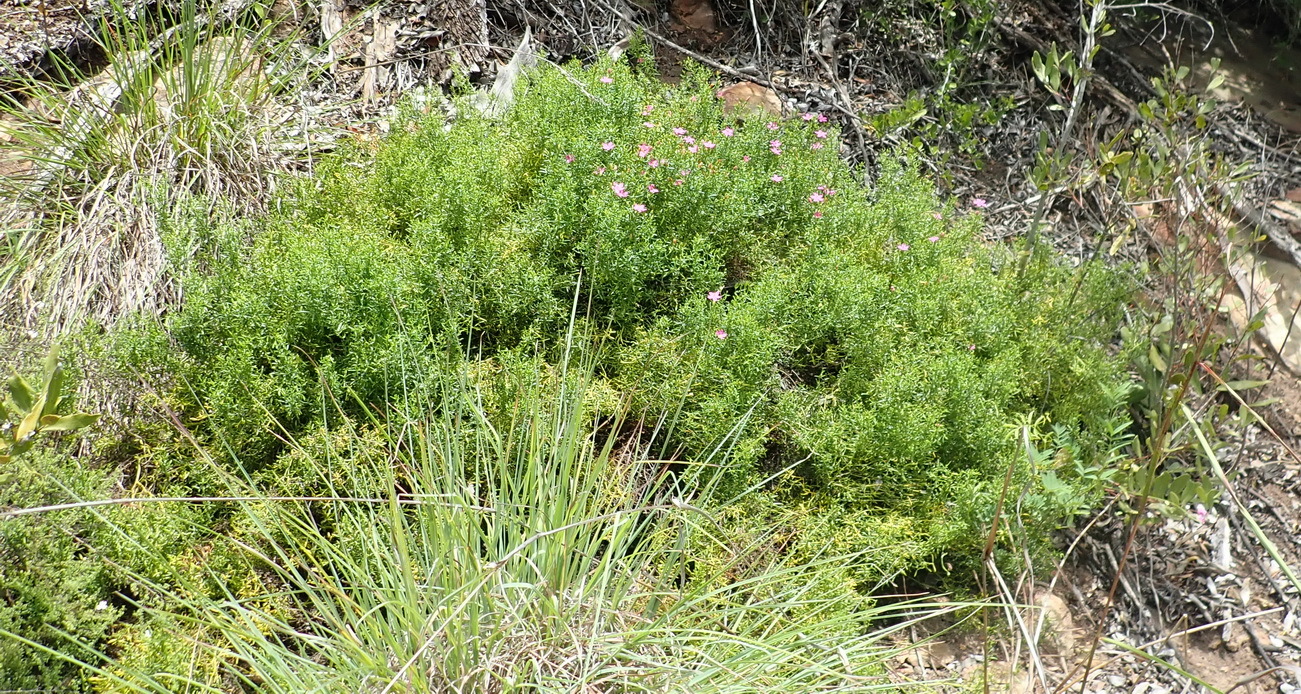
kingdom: Plantae
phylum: Tracheophyta
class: Magnoliopsida
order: Gentianales
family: Gentianaceae
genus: Chironia
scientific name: Chironia baccifera
